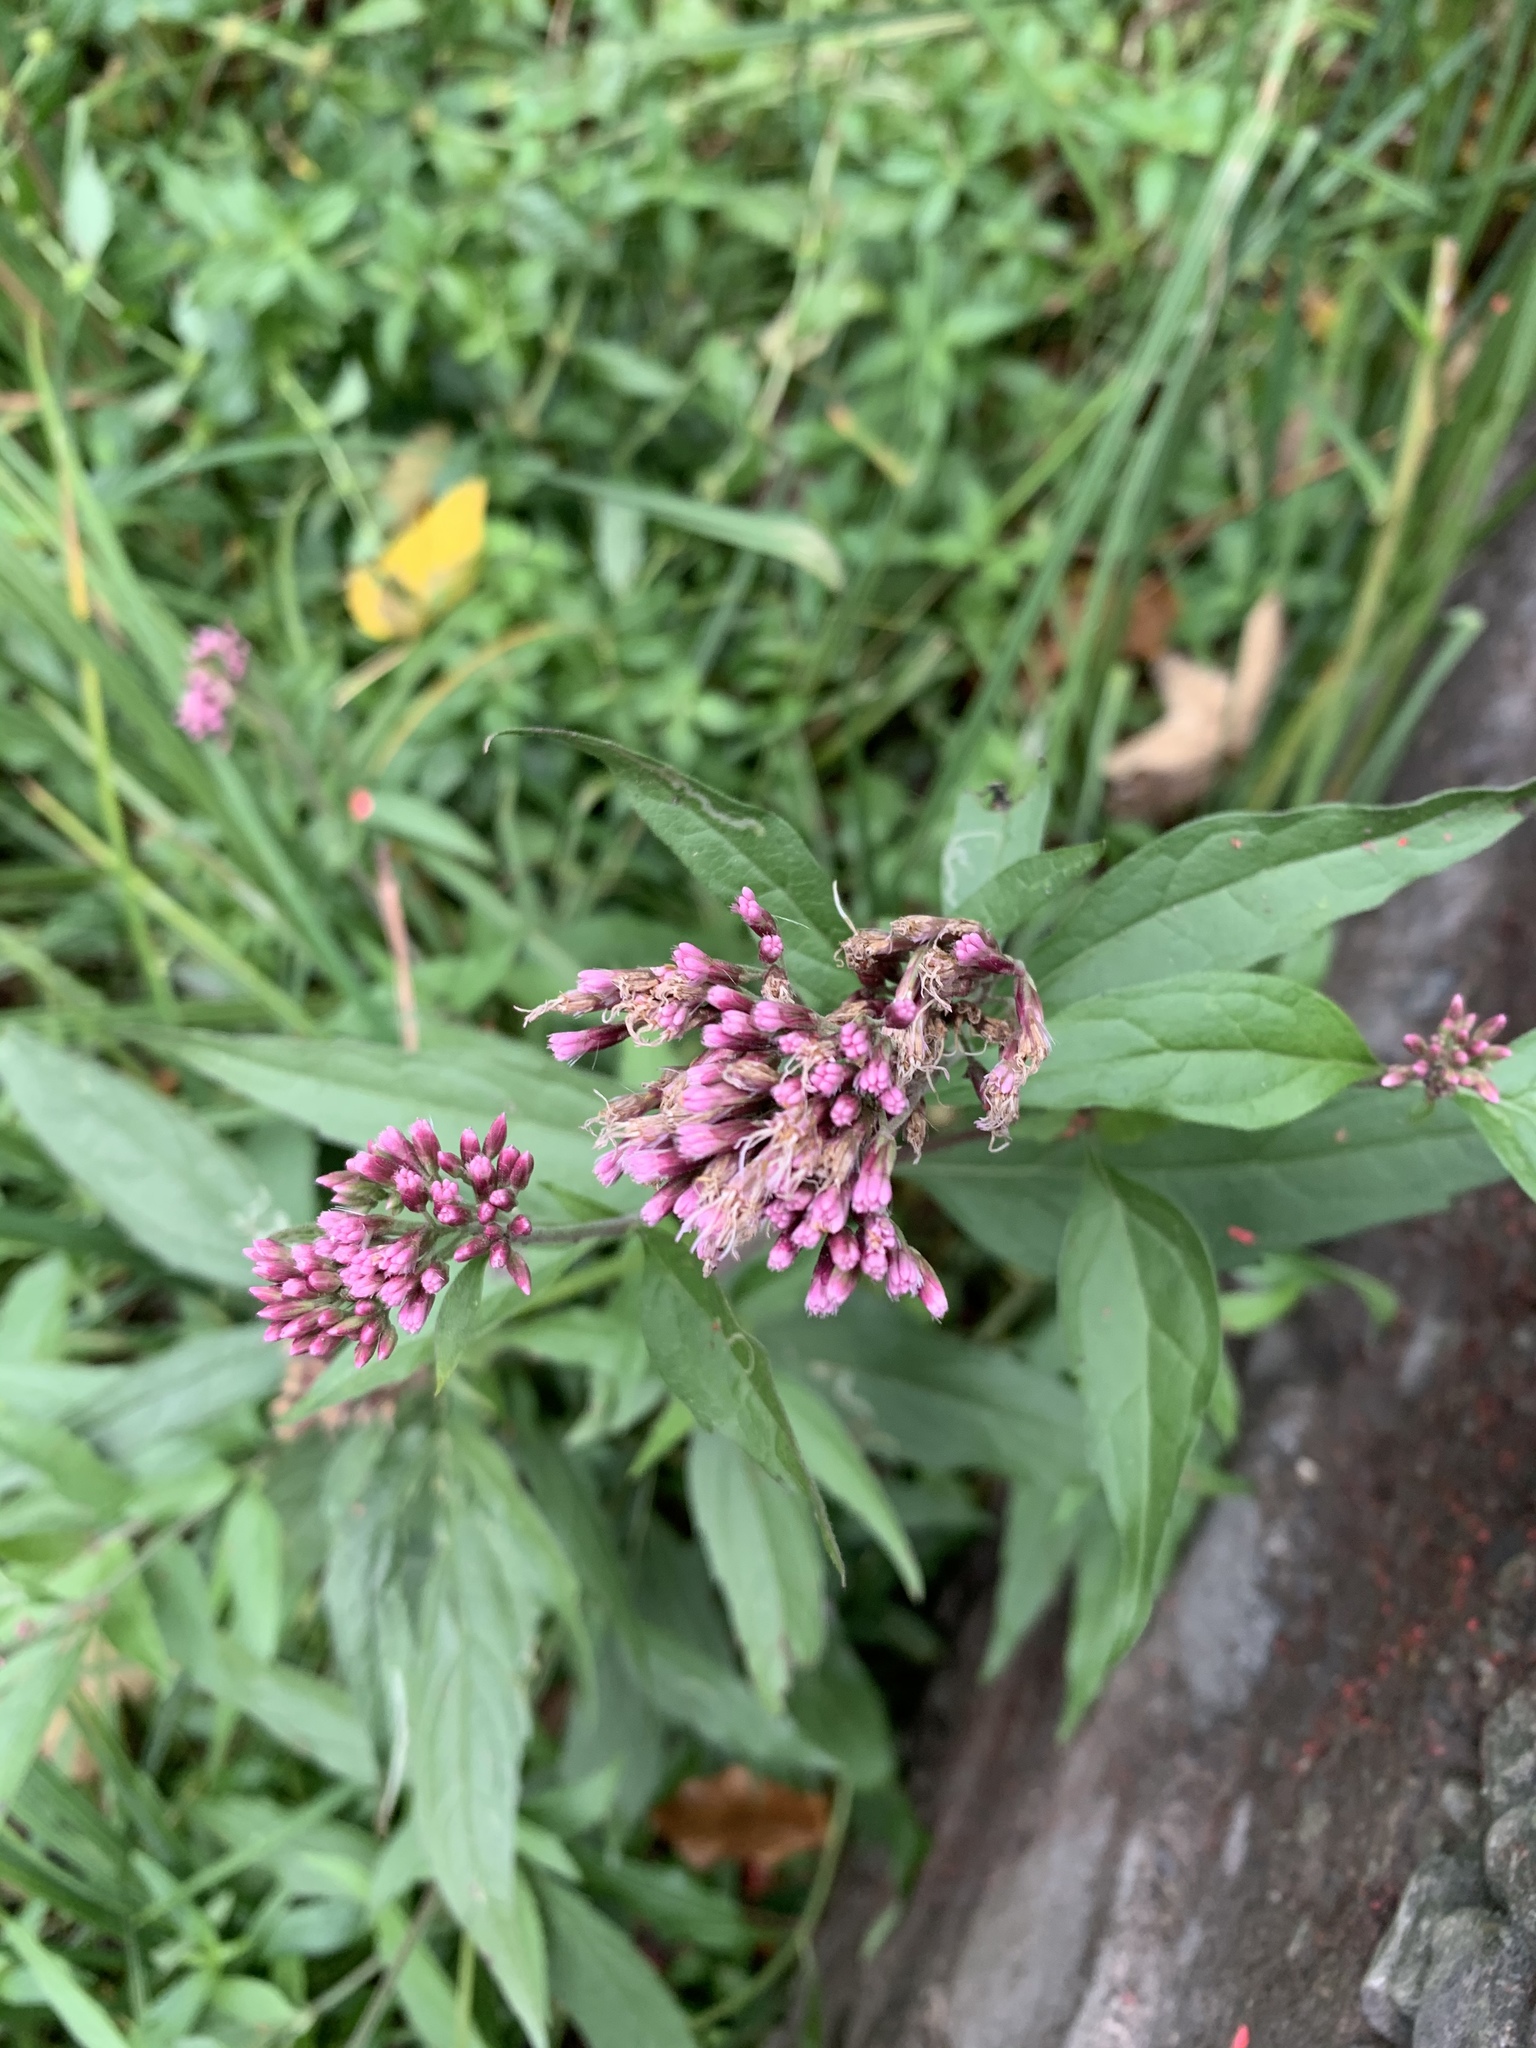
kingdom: Plantae
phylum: Tracheophyta
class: Magnoliopsida
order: Asterales
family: Asteraceae
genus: Eupatorium
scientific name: Eupatorium cannabinum
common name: Hemp-agrimony
